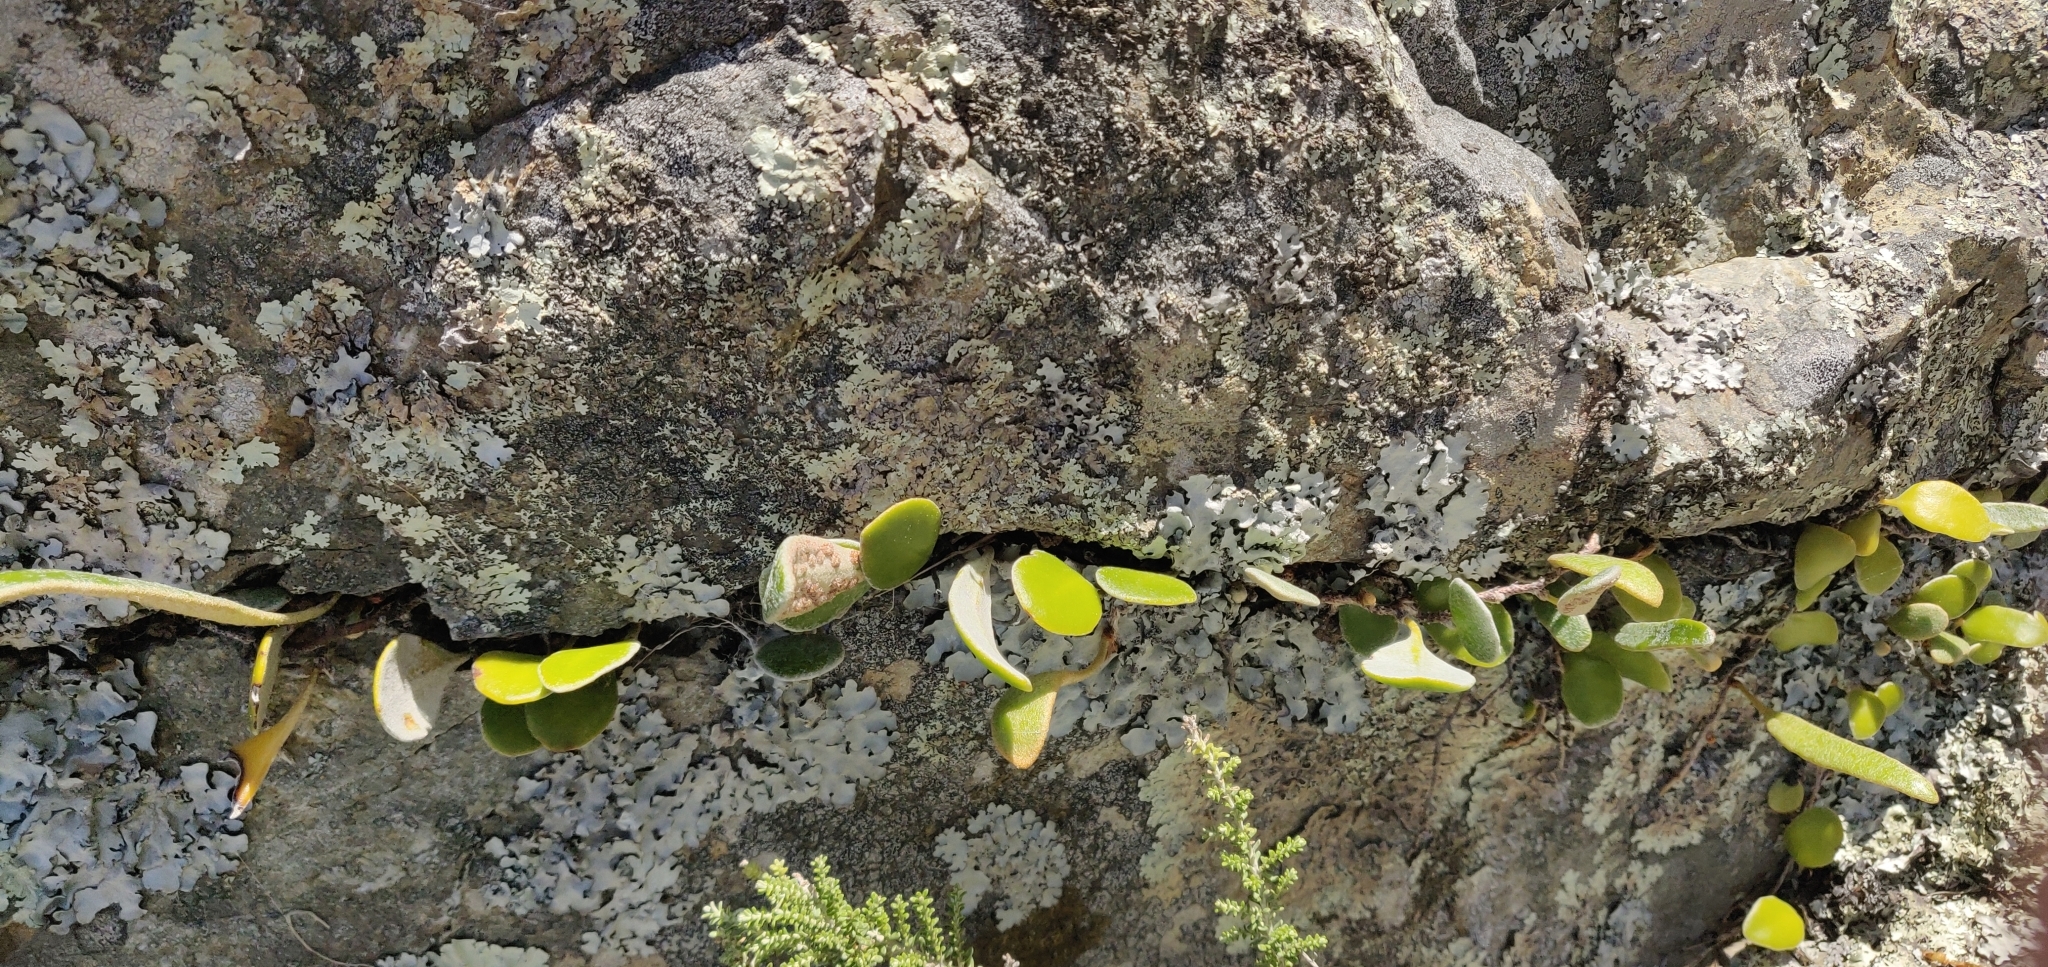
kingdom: Plantae
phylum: Tracheophyta
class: Polypodiopsida
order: Polypodiales
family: Polypodiaceae
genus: Pyrrosia
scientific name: Pyrrosia eleagnifolia
